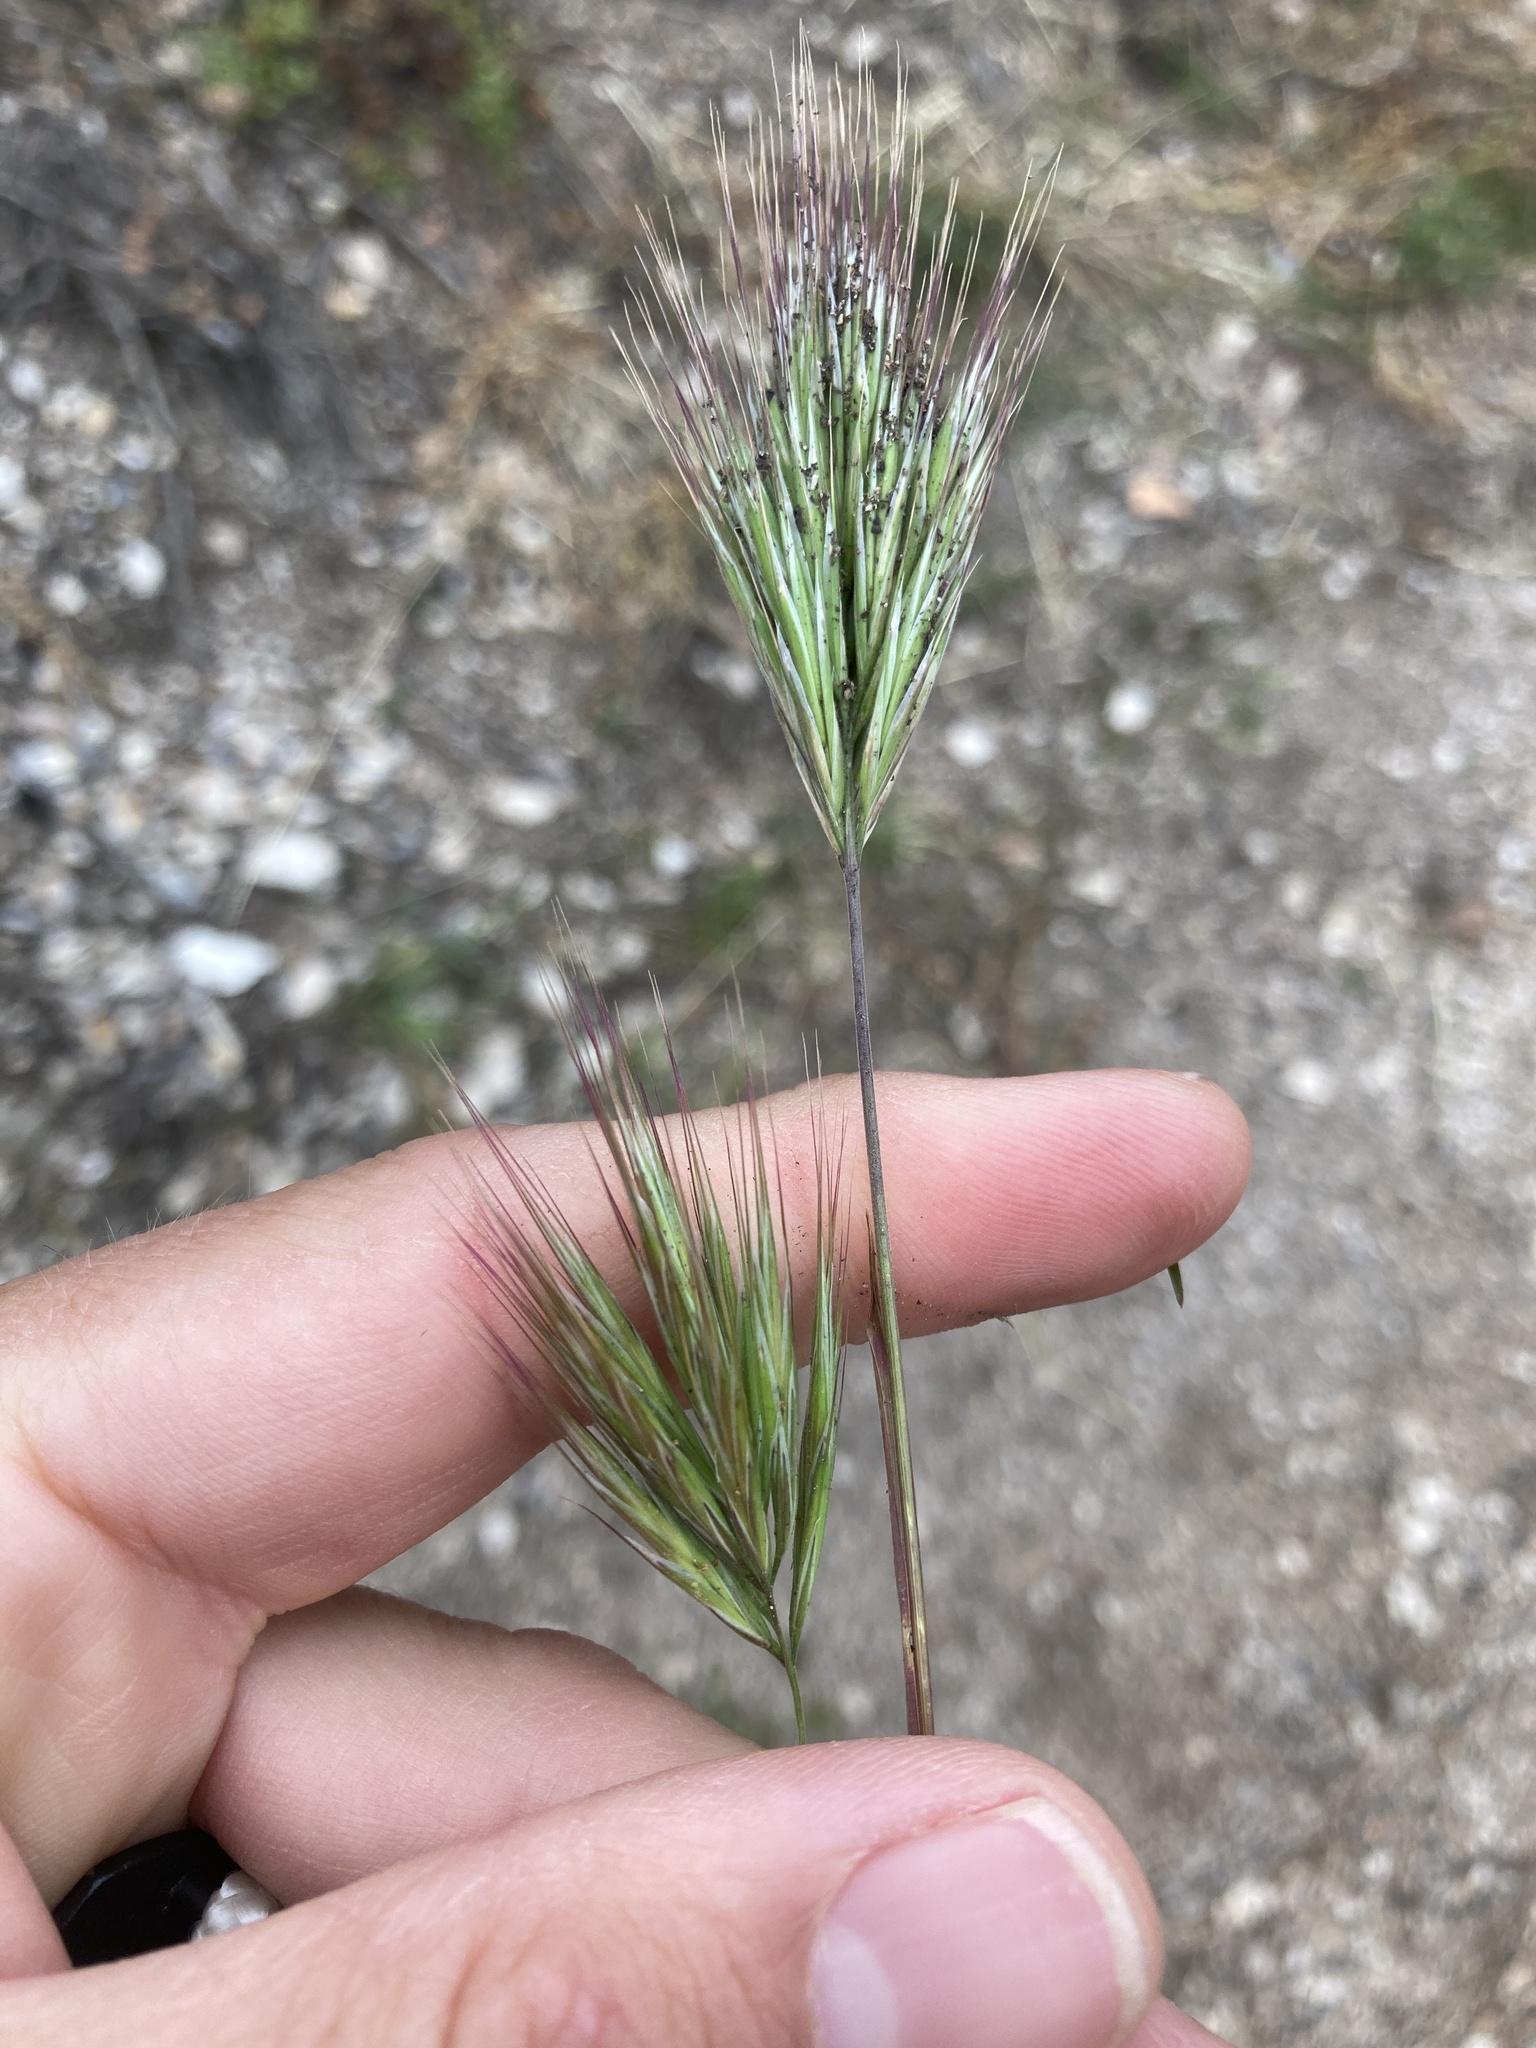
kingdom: Plantae
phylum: Tracheophyta
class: Liliopsida
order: Poales
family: Poaceae
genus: Bromus
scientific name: Bromus rubens
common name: Red brome
